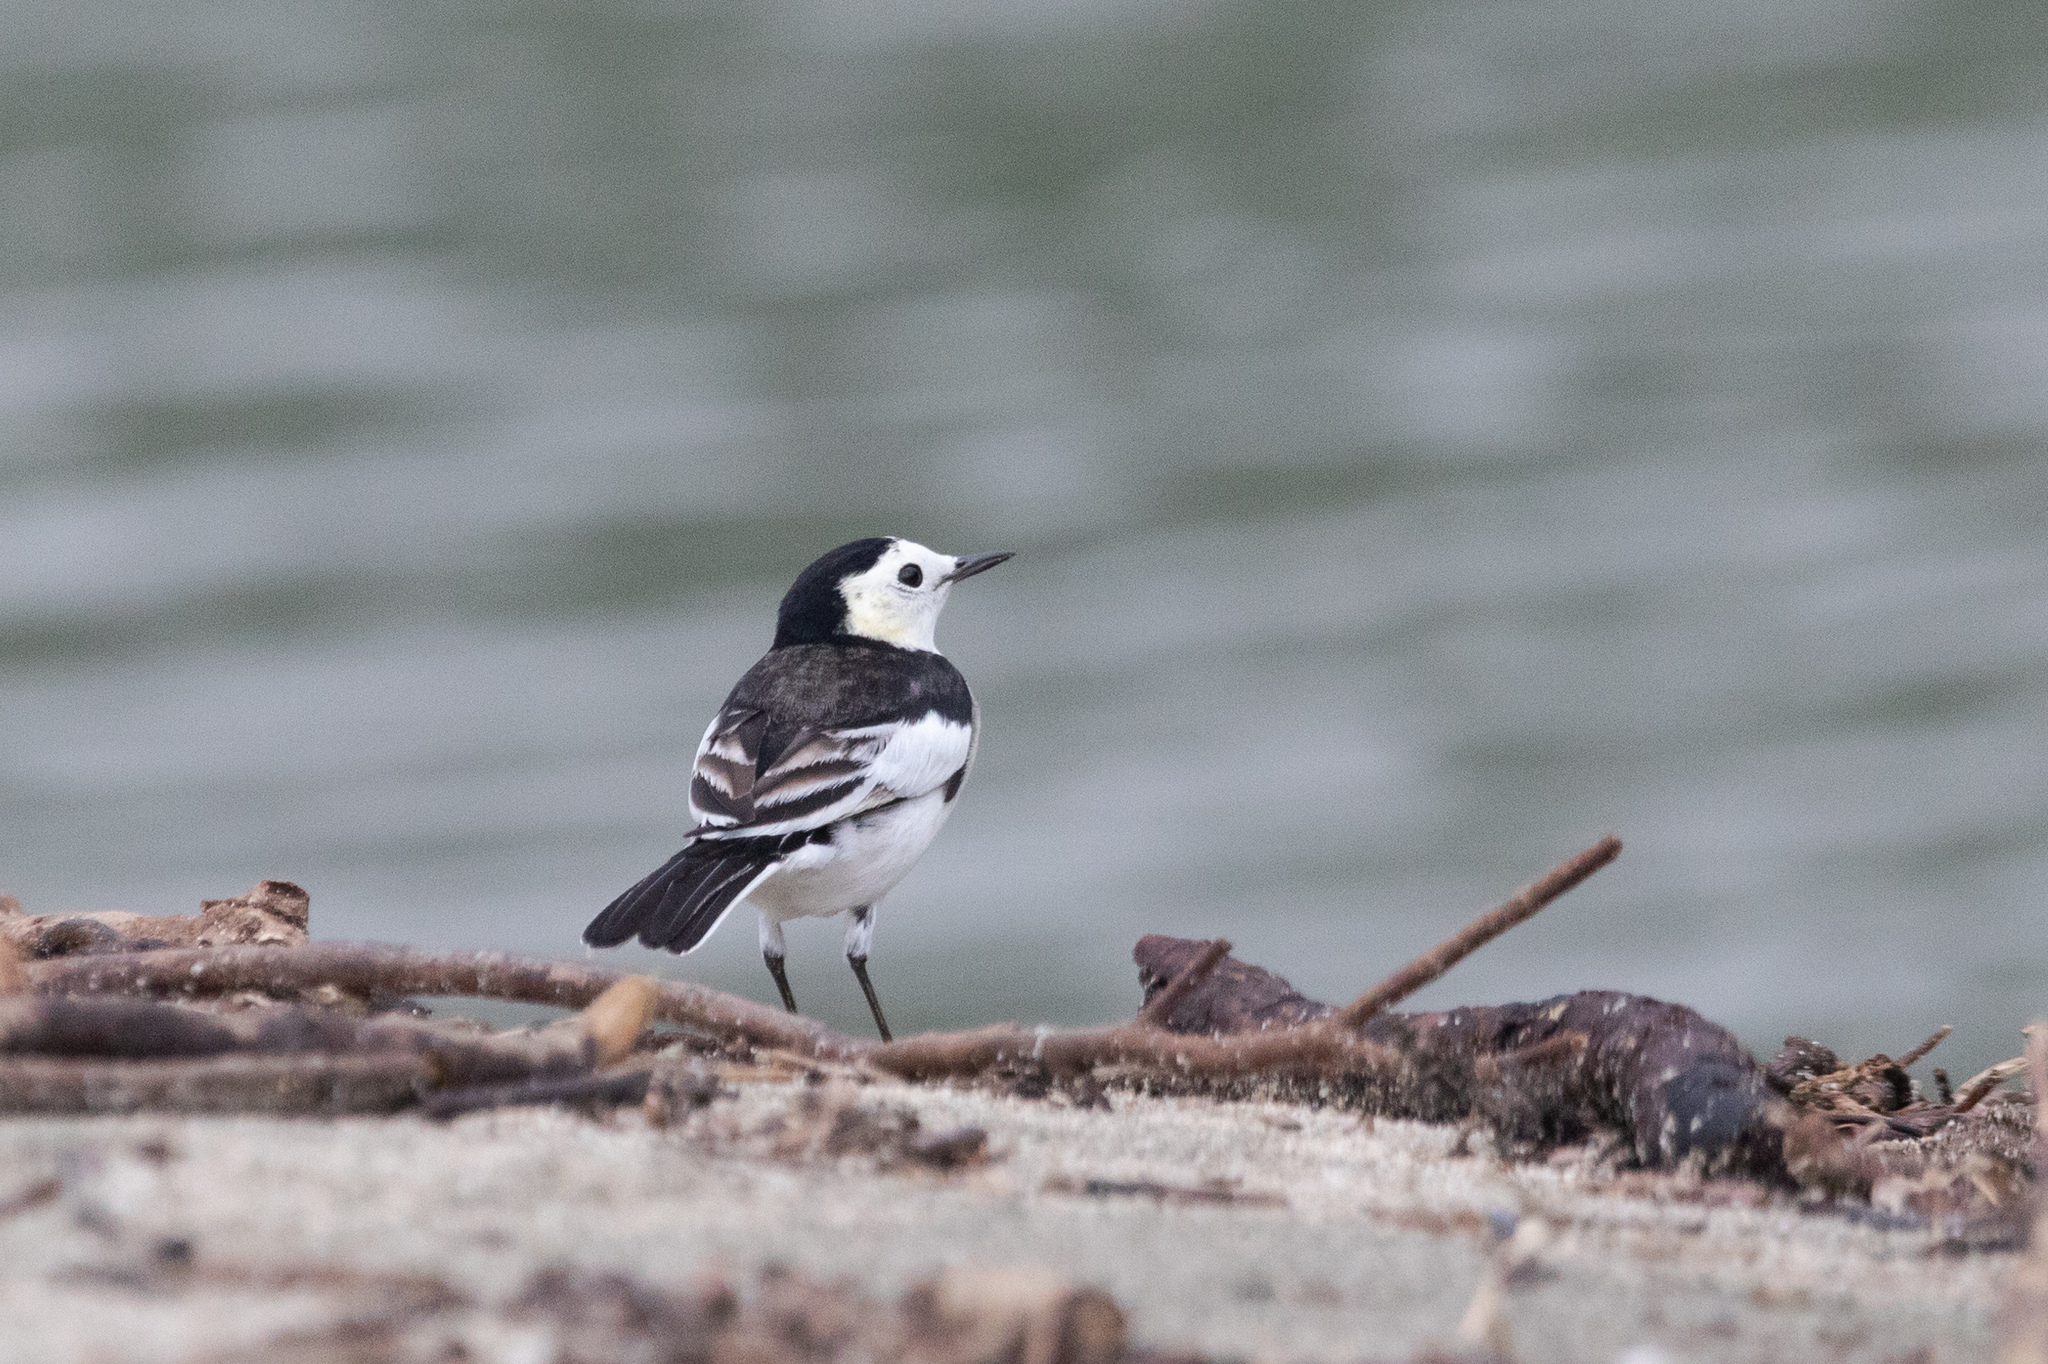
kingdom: Animalia
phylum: Chordata
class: Aves
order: Passeriformes
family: Motacillidae
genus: Motacilla
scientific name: Motacilla alba
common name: White wagtail
